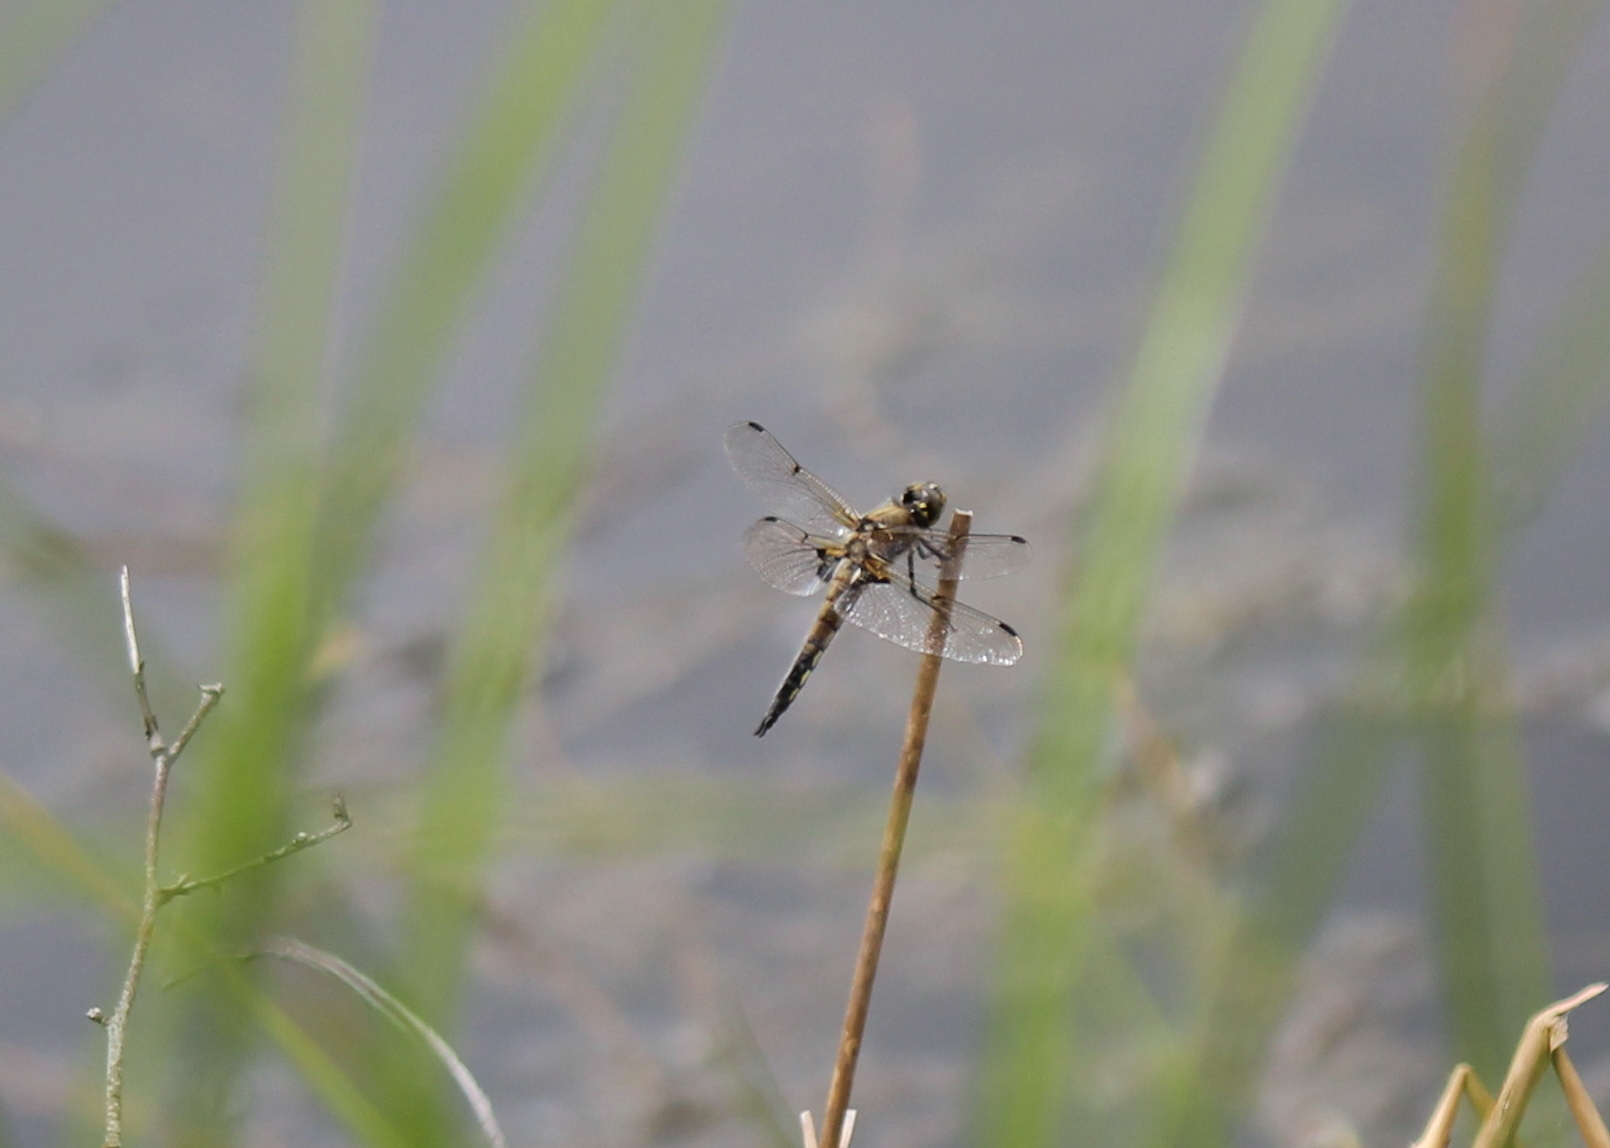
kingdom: Animalia
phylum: Arthropoda
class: Insecta
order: Odonata
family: Libellulidae
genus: Libellula
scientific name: Libellula quadrimaculata
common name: Four-spotted chaser
